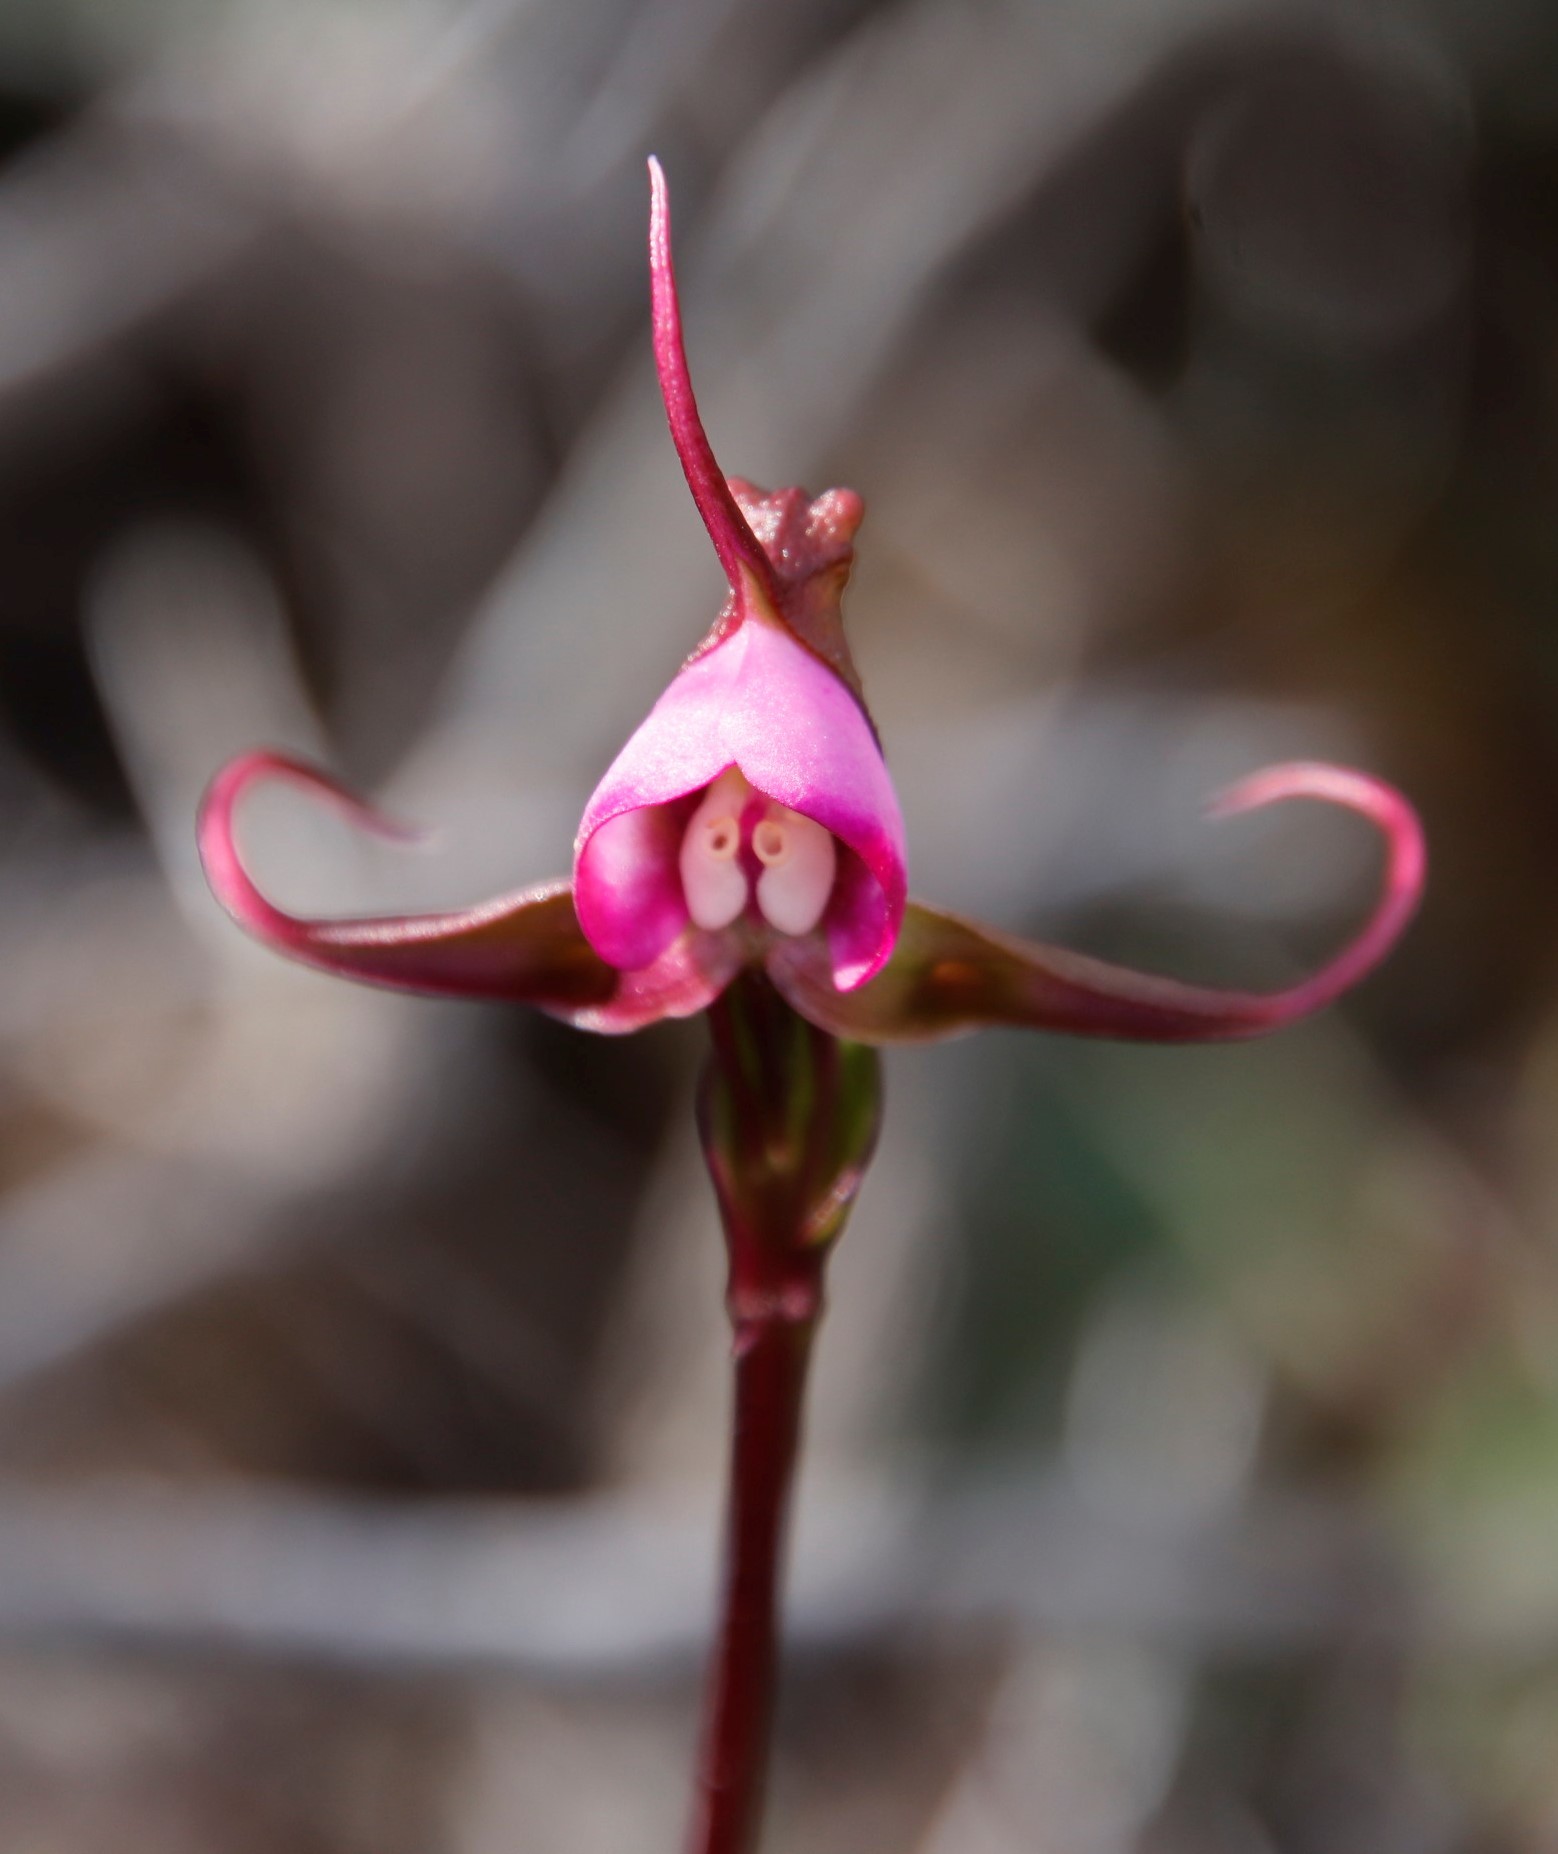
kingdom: Plantae
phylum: Tracheophyta
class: Liliopsida
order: Asparagales
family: Orchidaceae
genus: Disperis
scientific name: Disperis capensis
